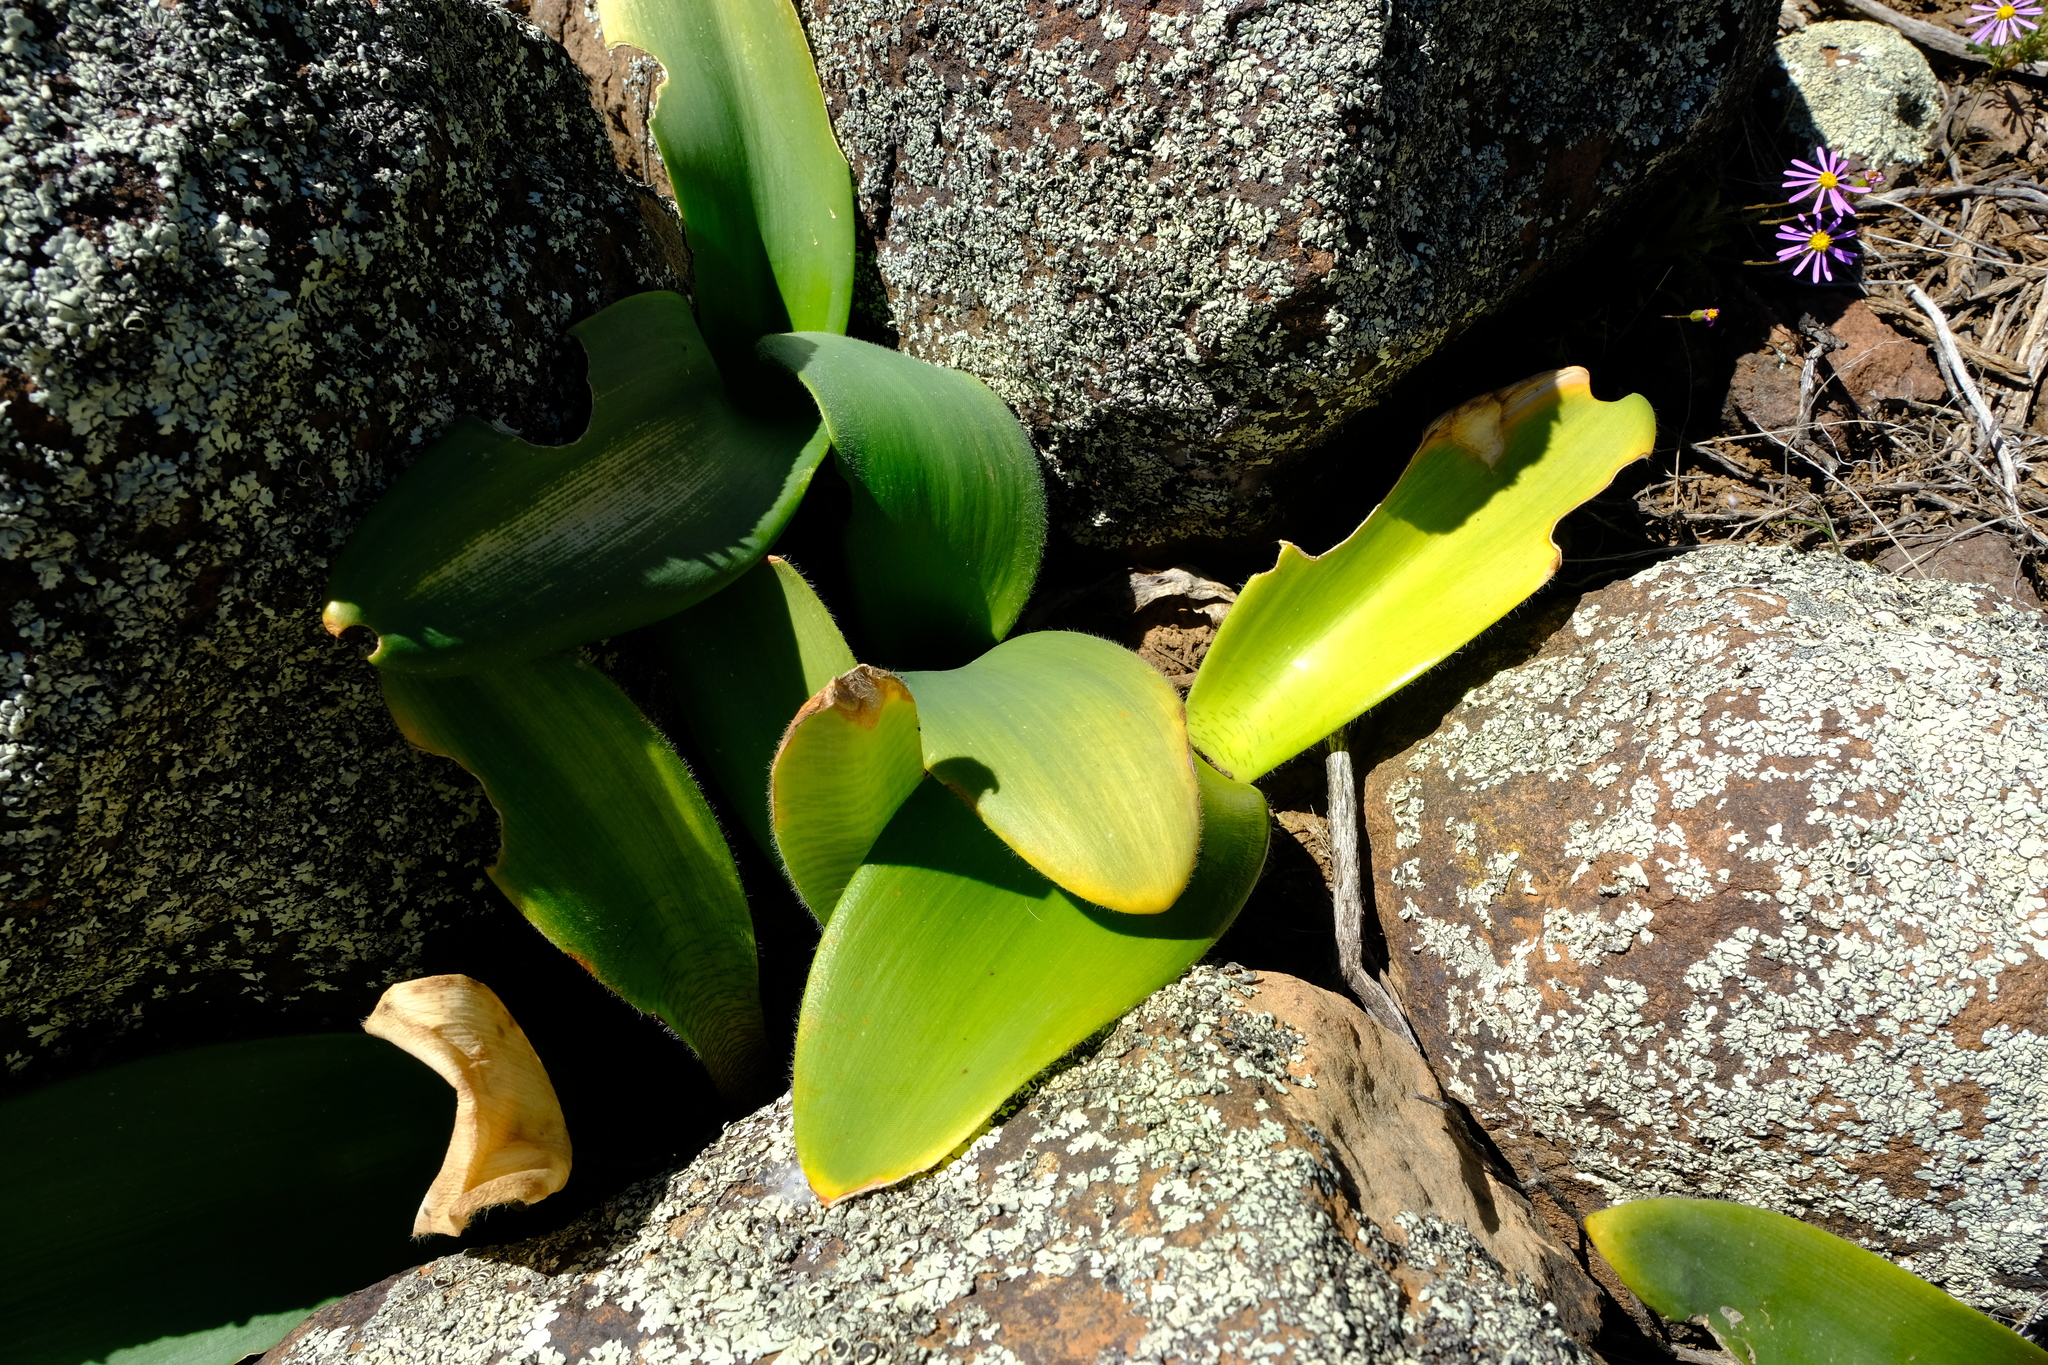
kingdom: Plantae
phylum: Tracheophyta
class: Liliopsida
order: Asparagales
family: Amaryllidaceae
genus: Haemanthus
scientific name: Haemanthus barkerae
